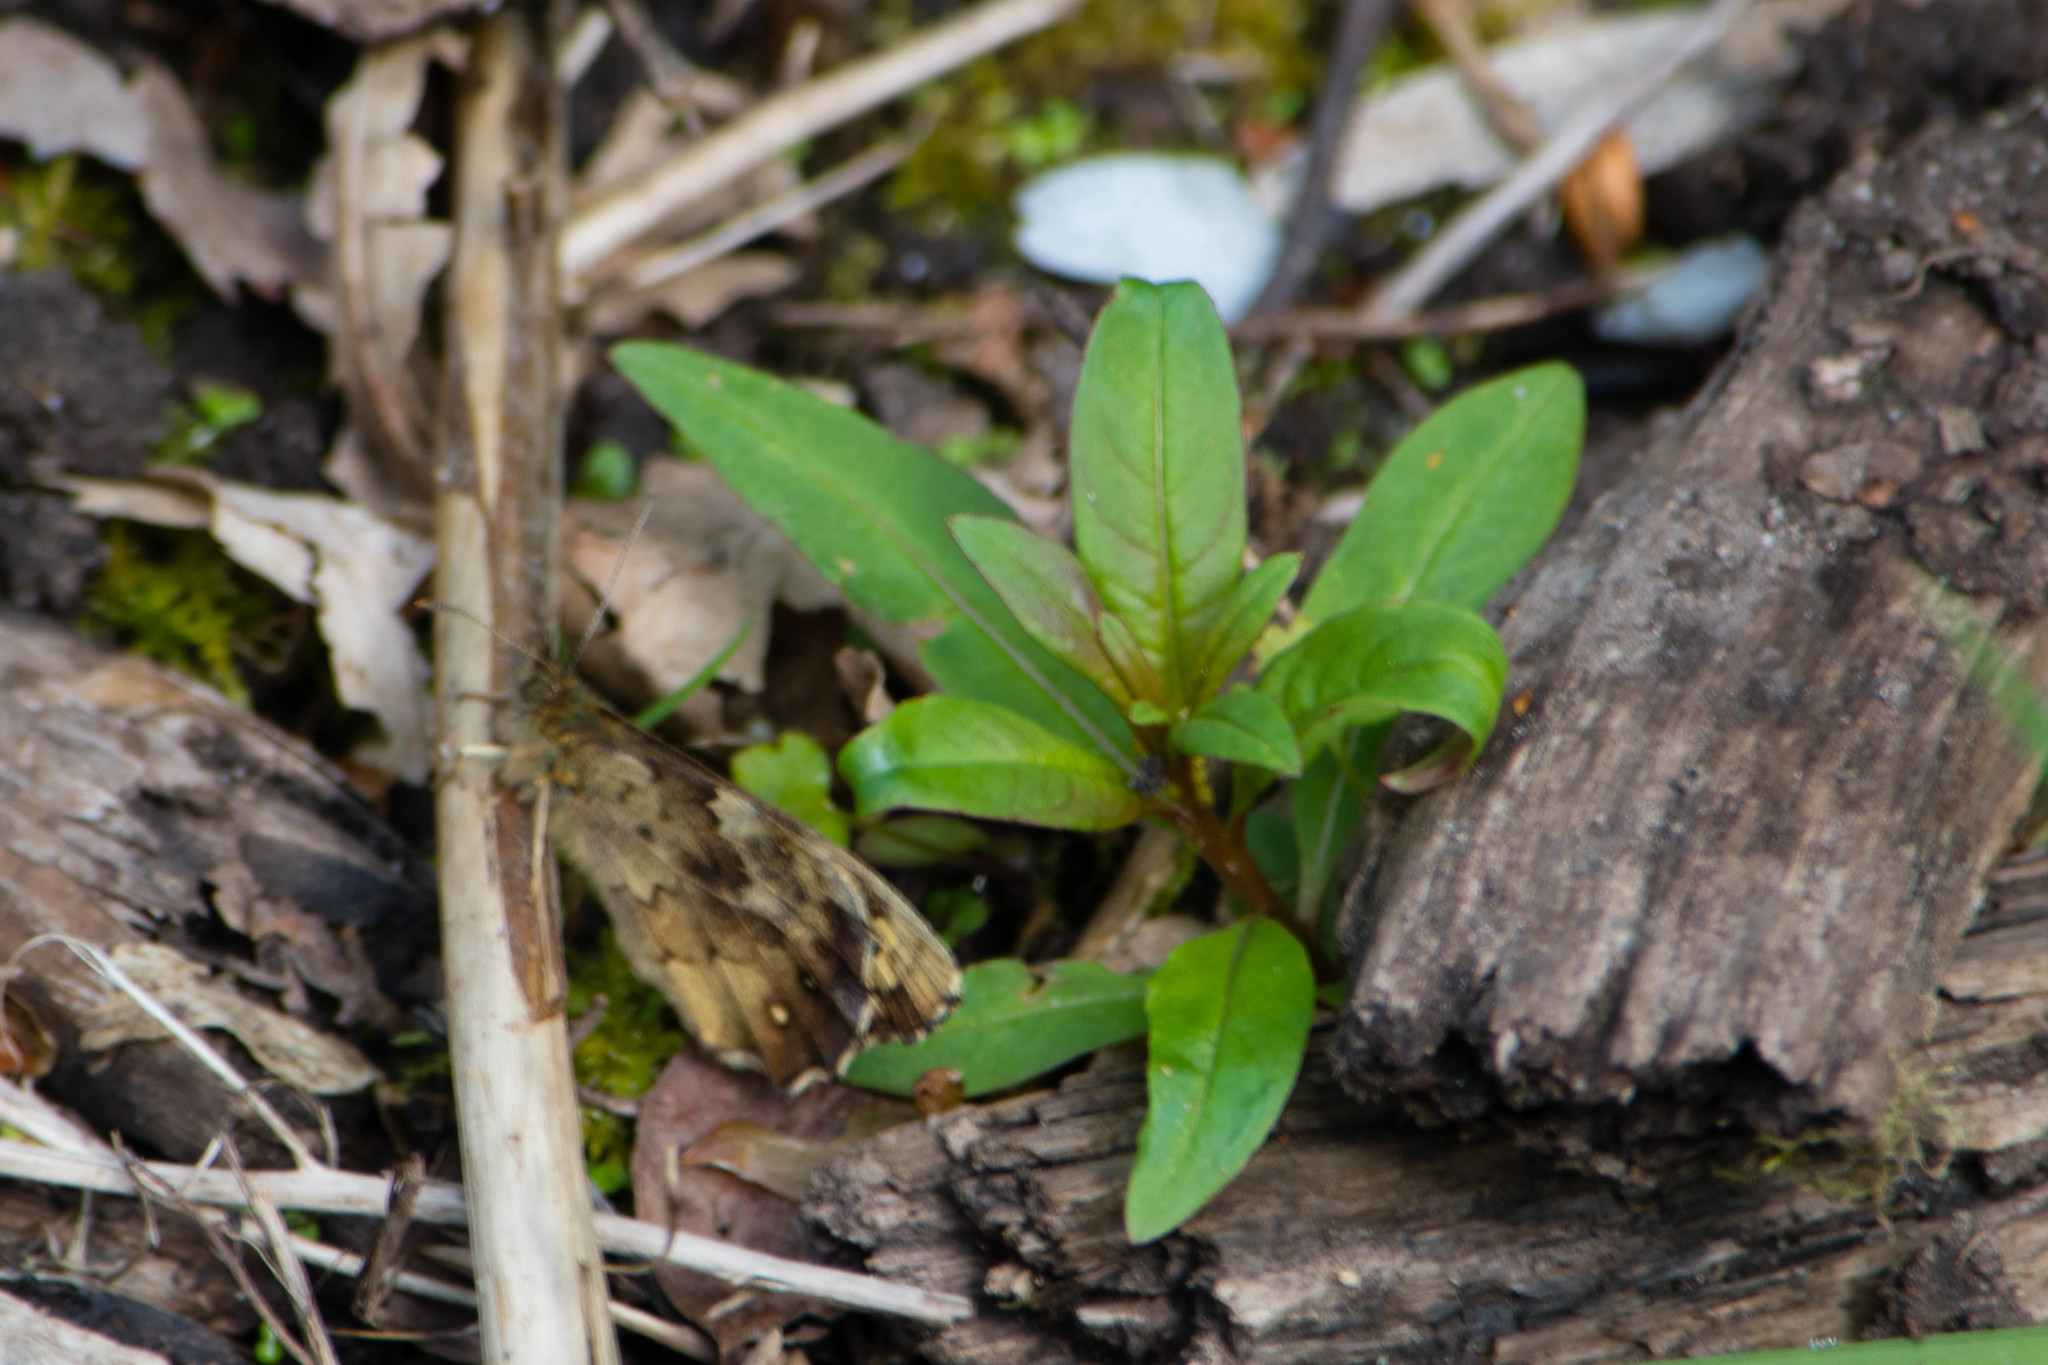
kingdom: Animalia
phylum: Arthropoda
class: Insecta
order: Lepidoptera
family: Nymphalidae
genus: Pararge
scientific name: Pararge aegeria
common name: Speckled wood
